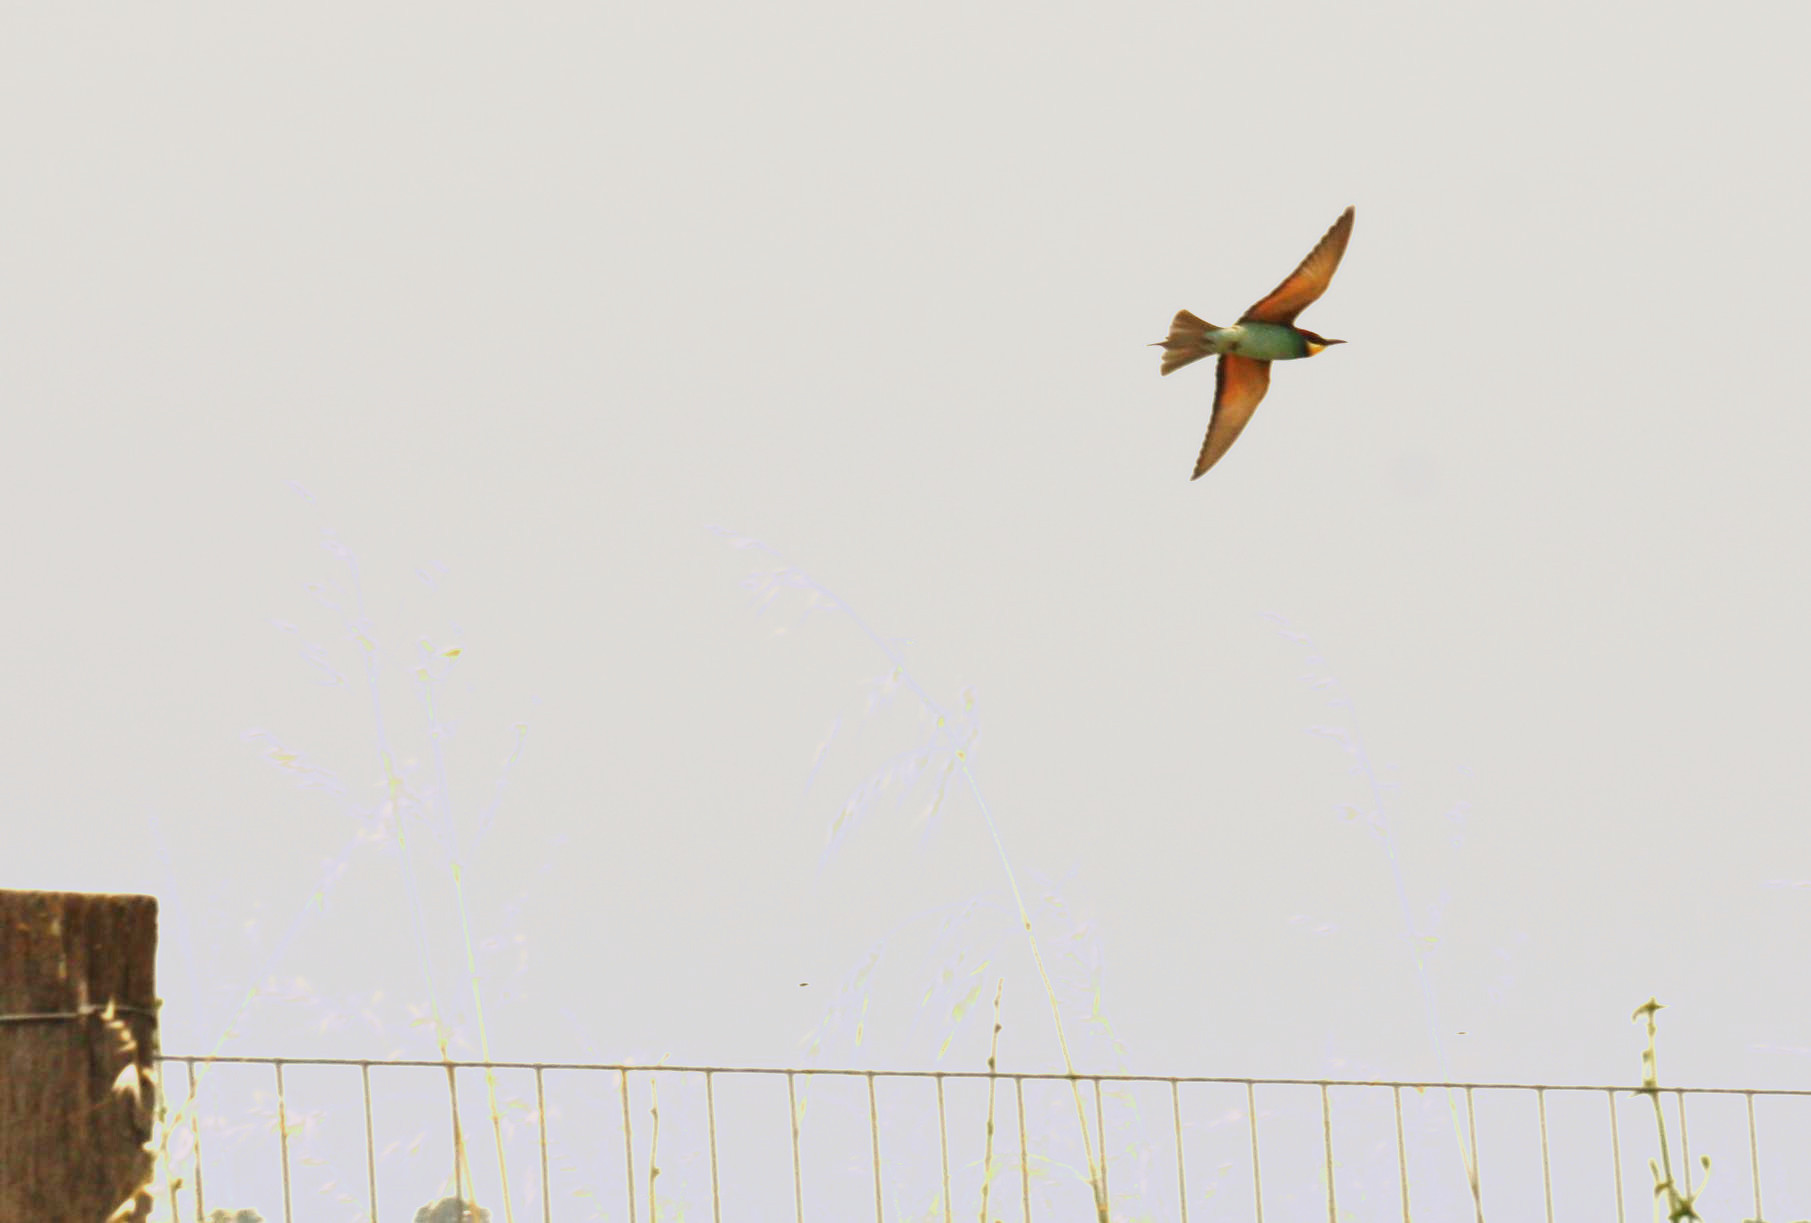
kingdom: Animalia
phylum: Chordata
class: Aves
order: Coraciiformes
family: Meropidae
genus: Merops
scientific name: Merops apiaster
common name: European bee-eater
